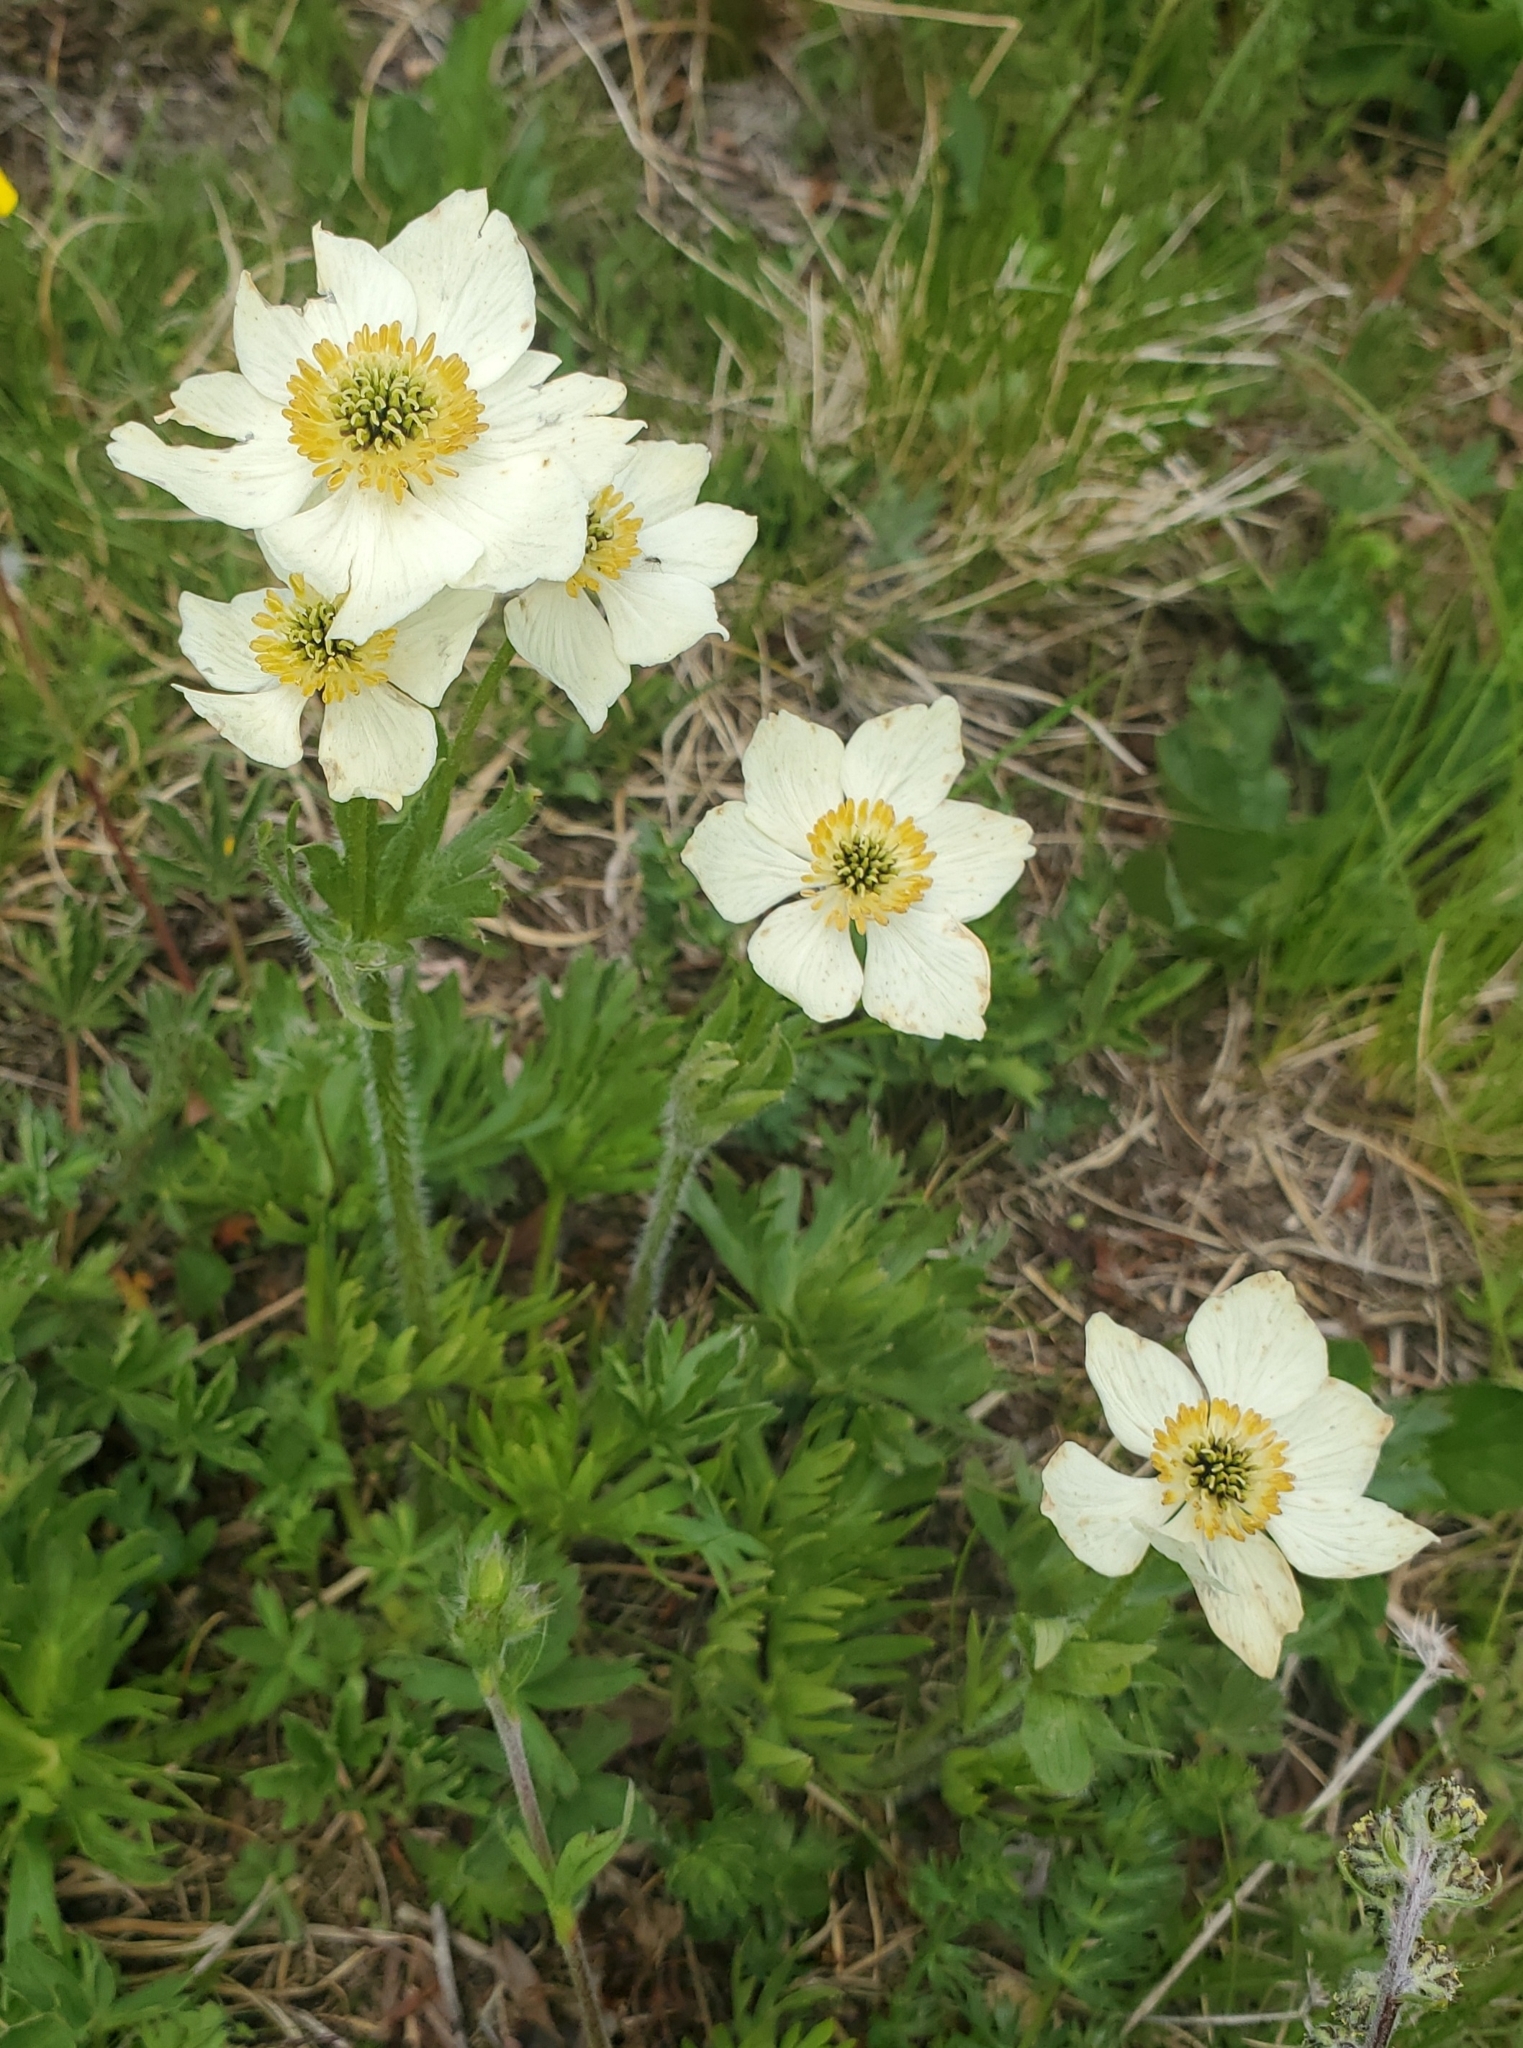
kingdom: Plantae
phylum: Tracheophyta
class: Magnoliopsida
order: Ranunculales
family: Ranunculaceae
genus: Anemonastrum
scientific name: Anemonastrum narcissiflorum
